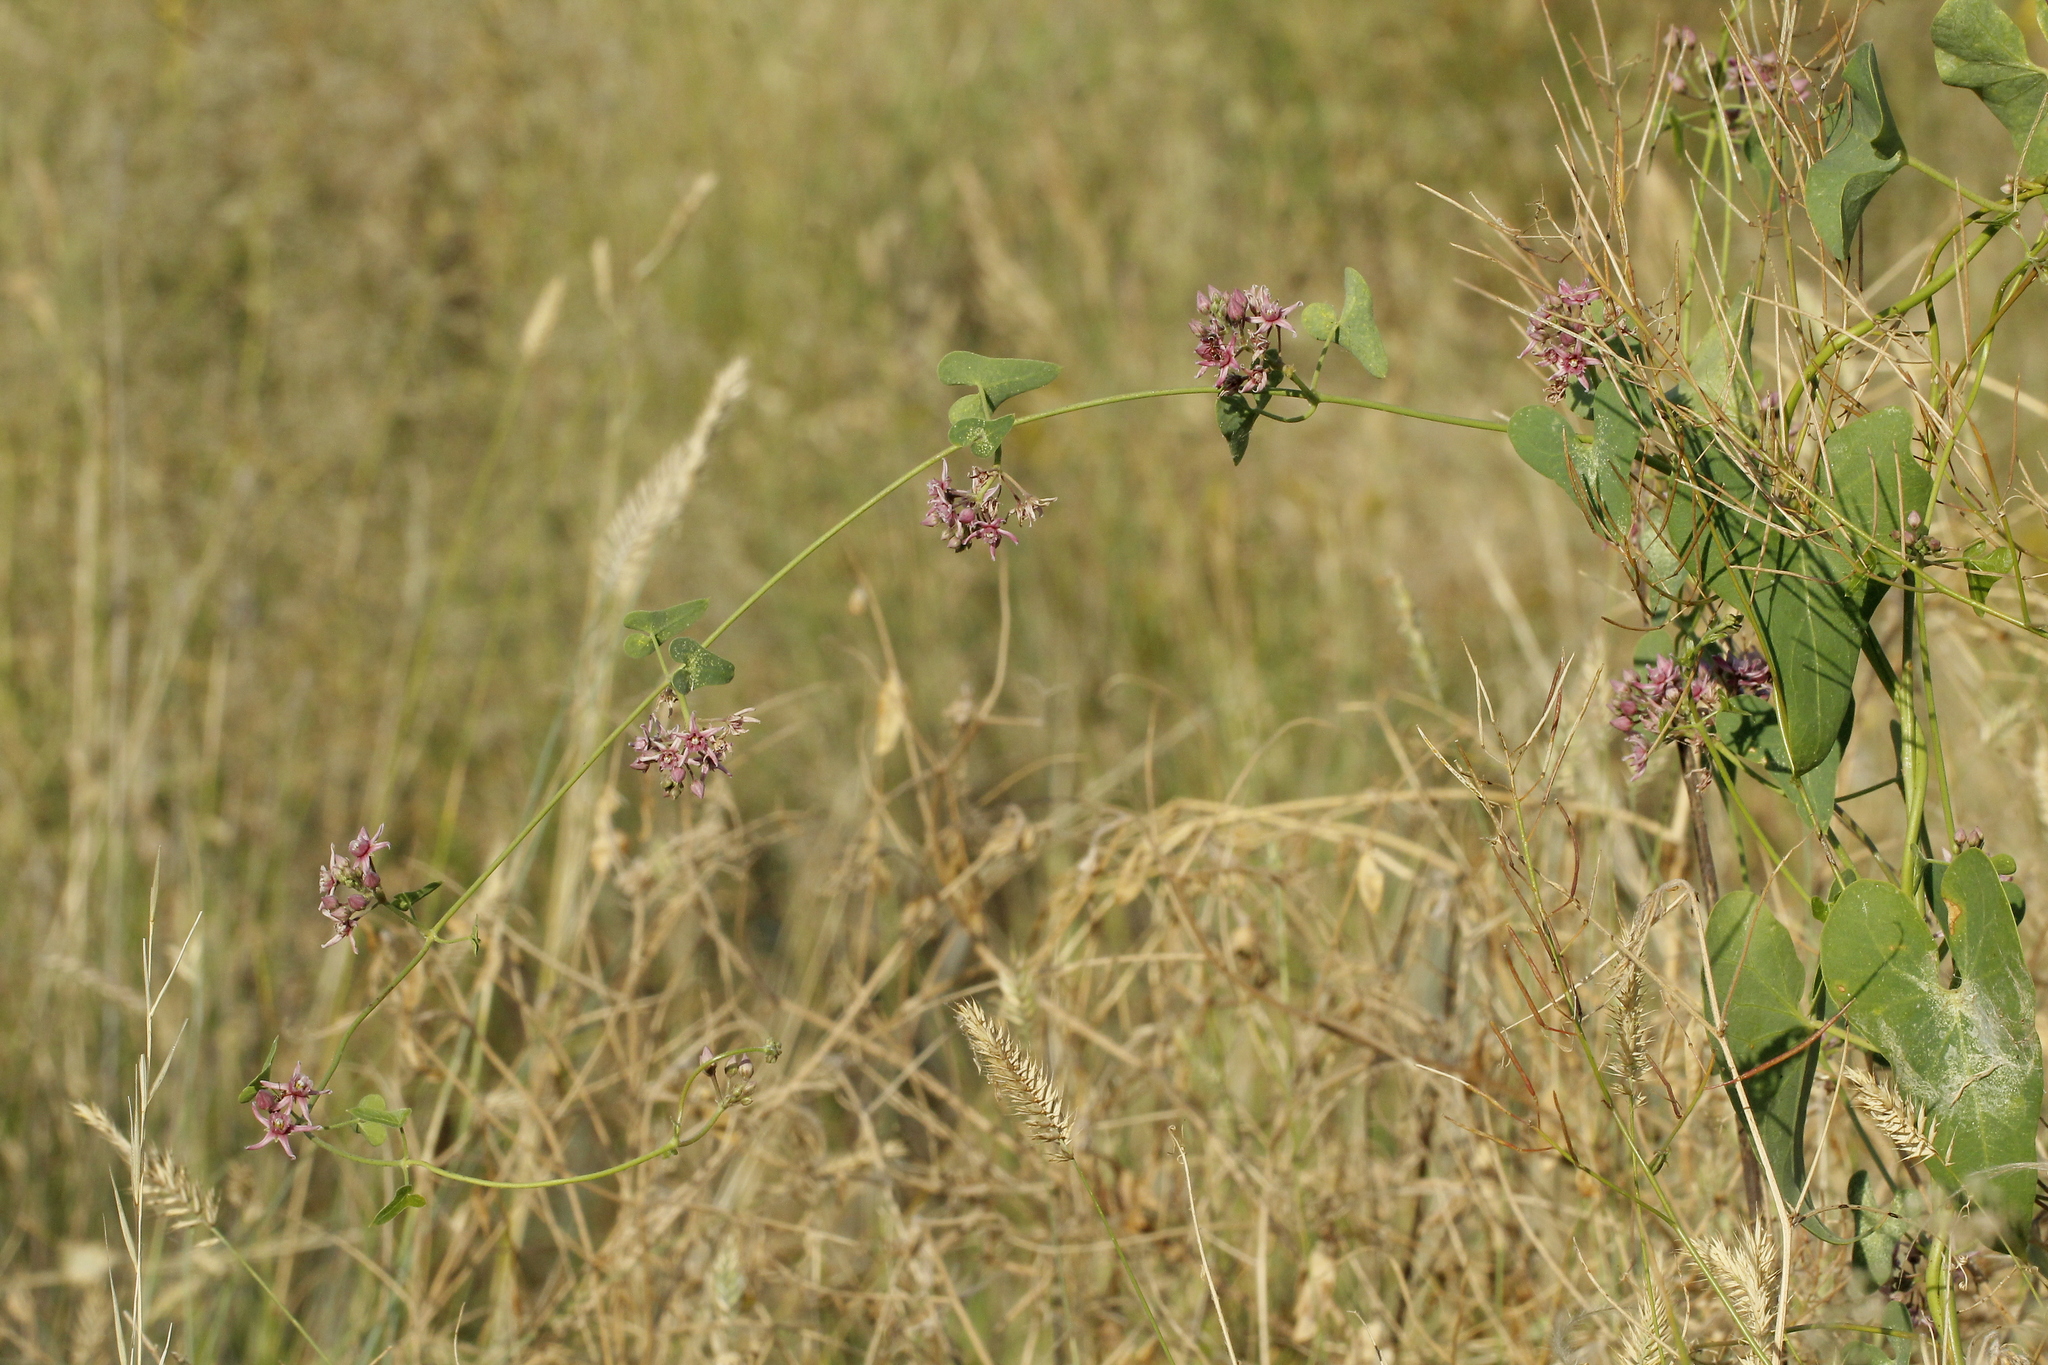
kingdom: Plantae
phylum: Tracheophyta
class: Magnoliopsida
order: Gentianales
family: Apocynaceae
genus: Cynanchum
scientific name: Cynanchum acutum
